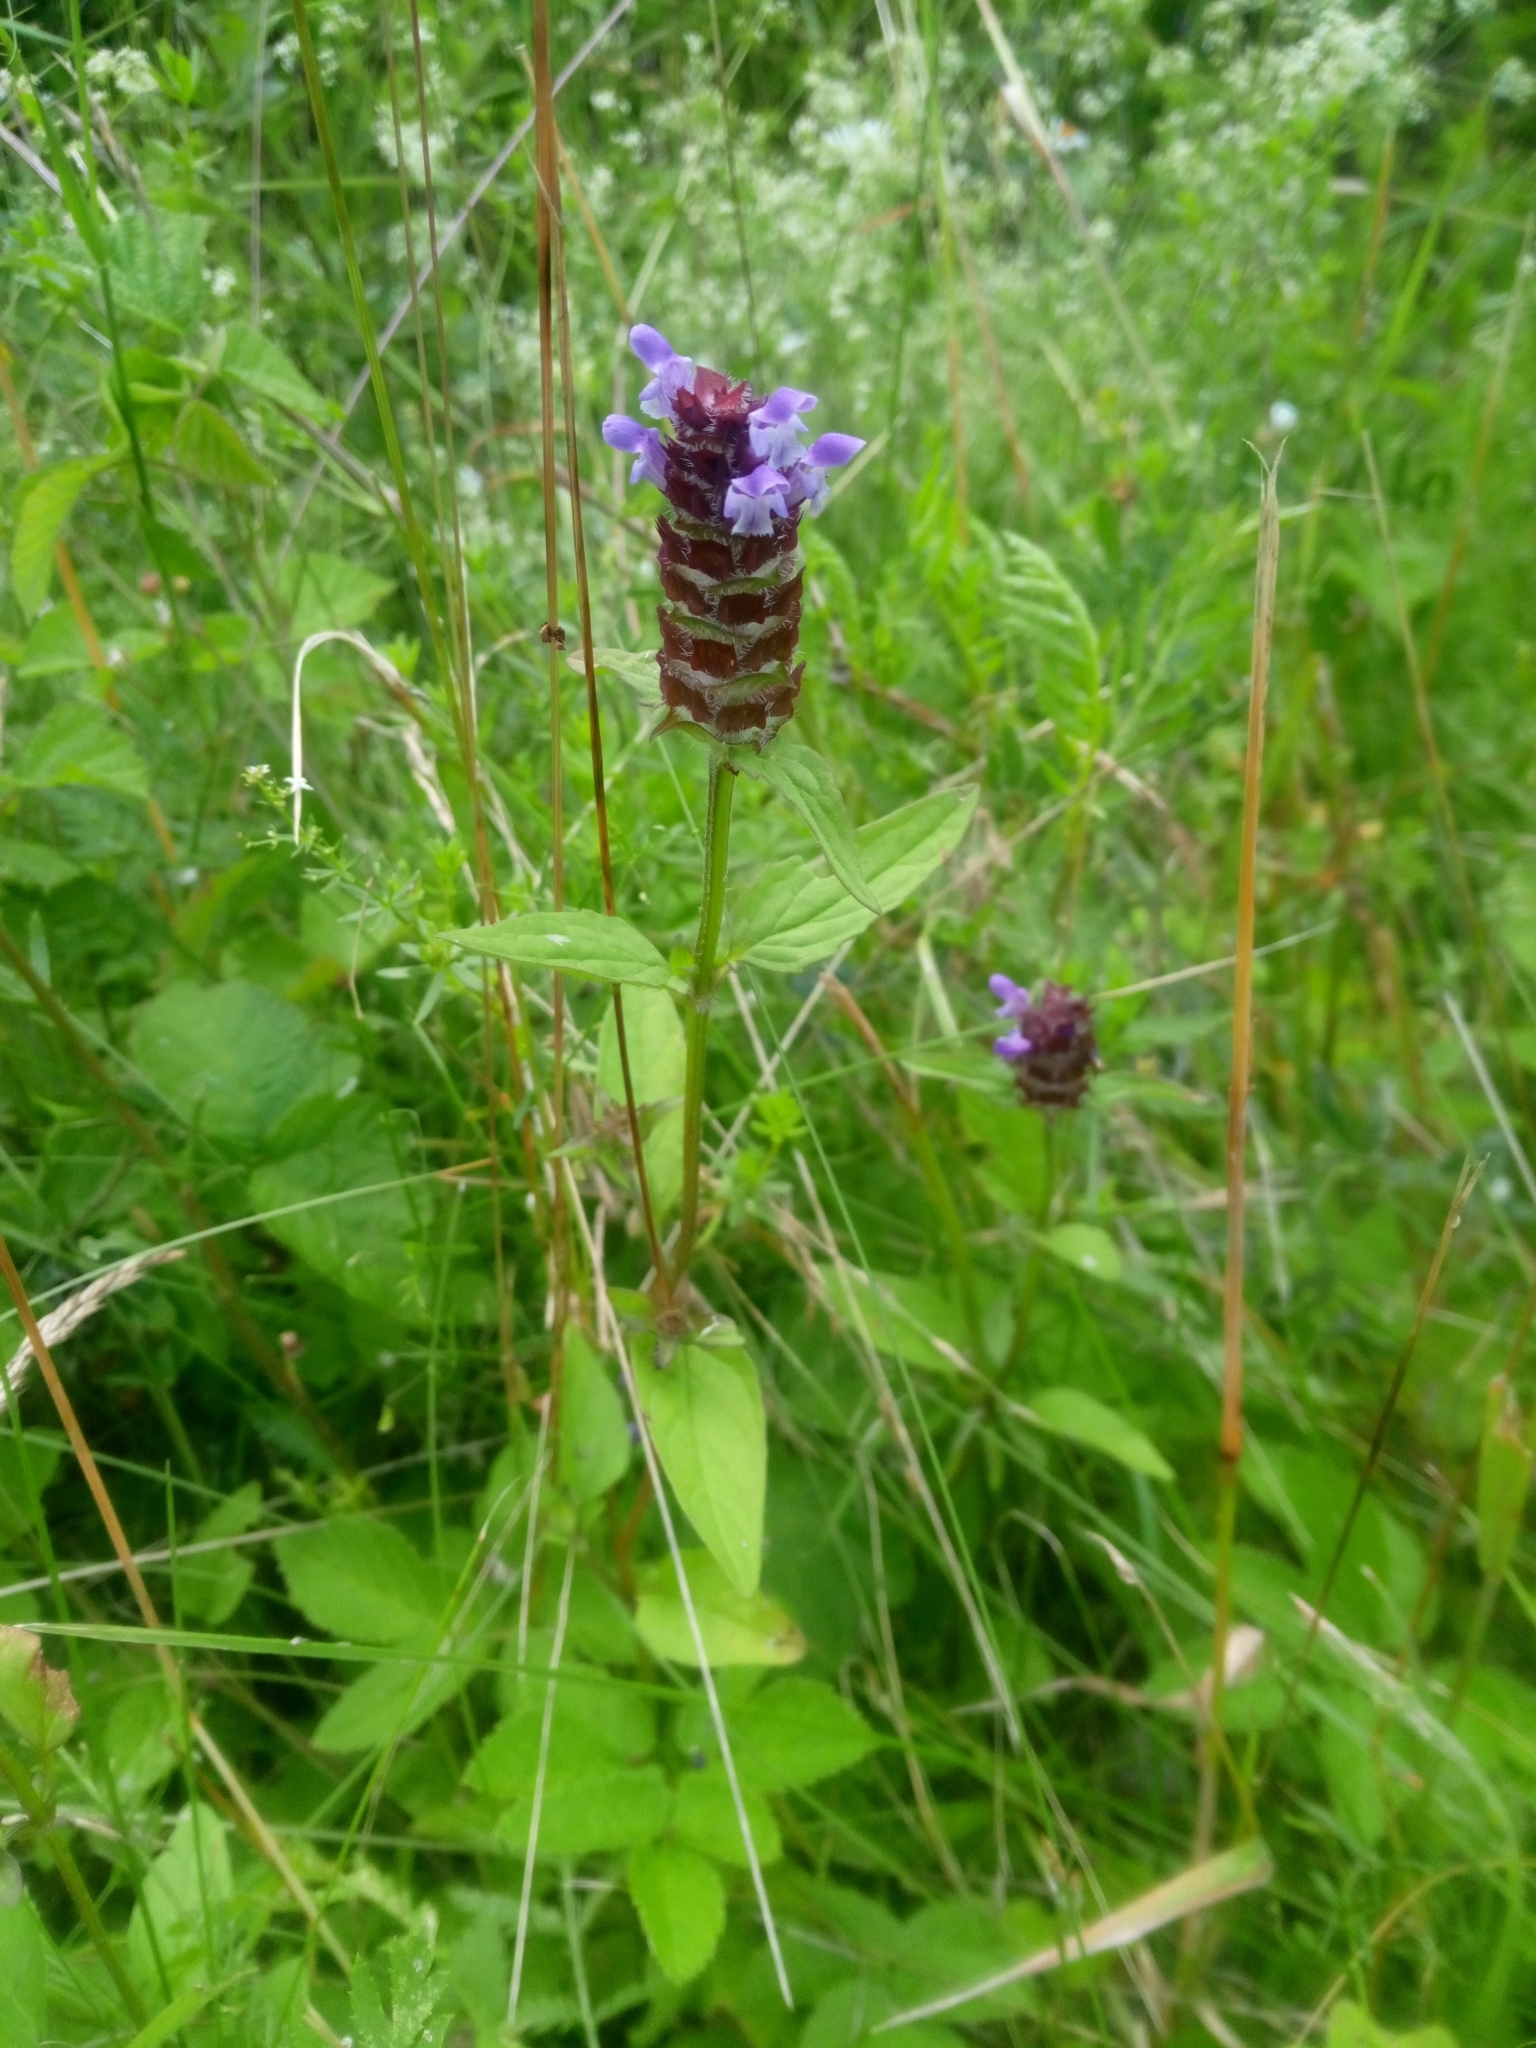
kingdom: Plantae
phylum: Tracheophyta
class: Magnoliopsida
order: Lamiales
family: Lamiaceae
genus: Prunella
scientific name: Prunella vulgaris
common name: Heal-all
